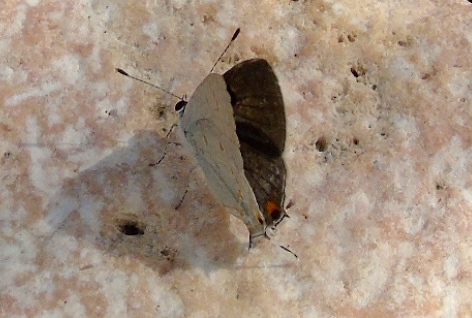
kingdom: Animalia
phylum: Arthropoda
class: Insecta
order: Lepidoptera
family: Lycaenidae
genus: Thecla
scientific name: Thecla ziba
